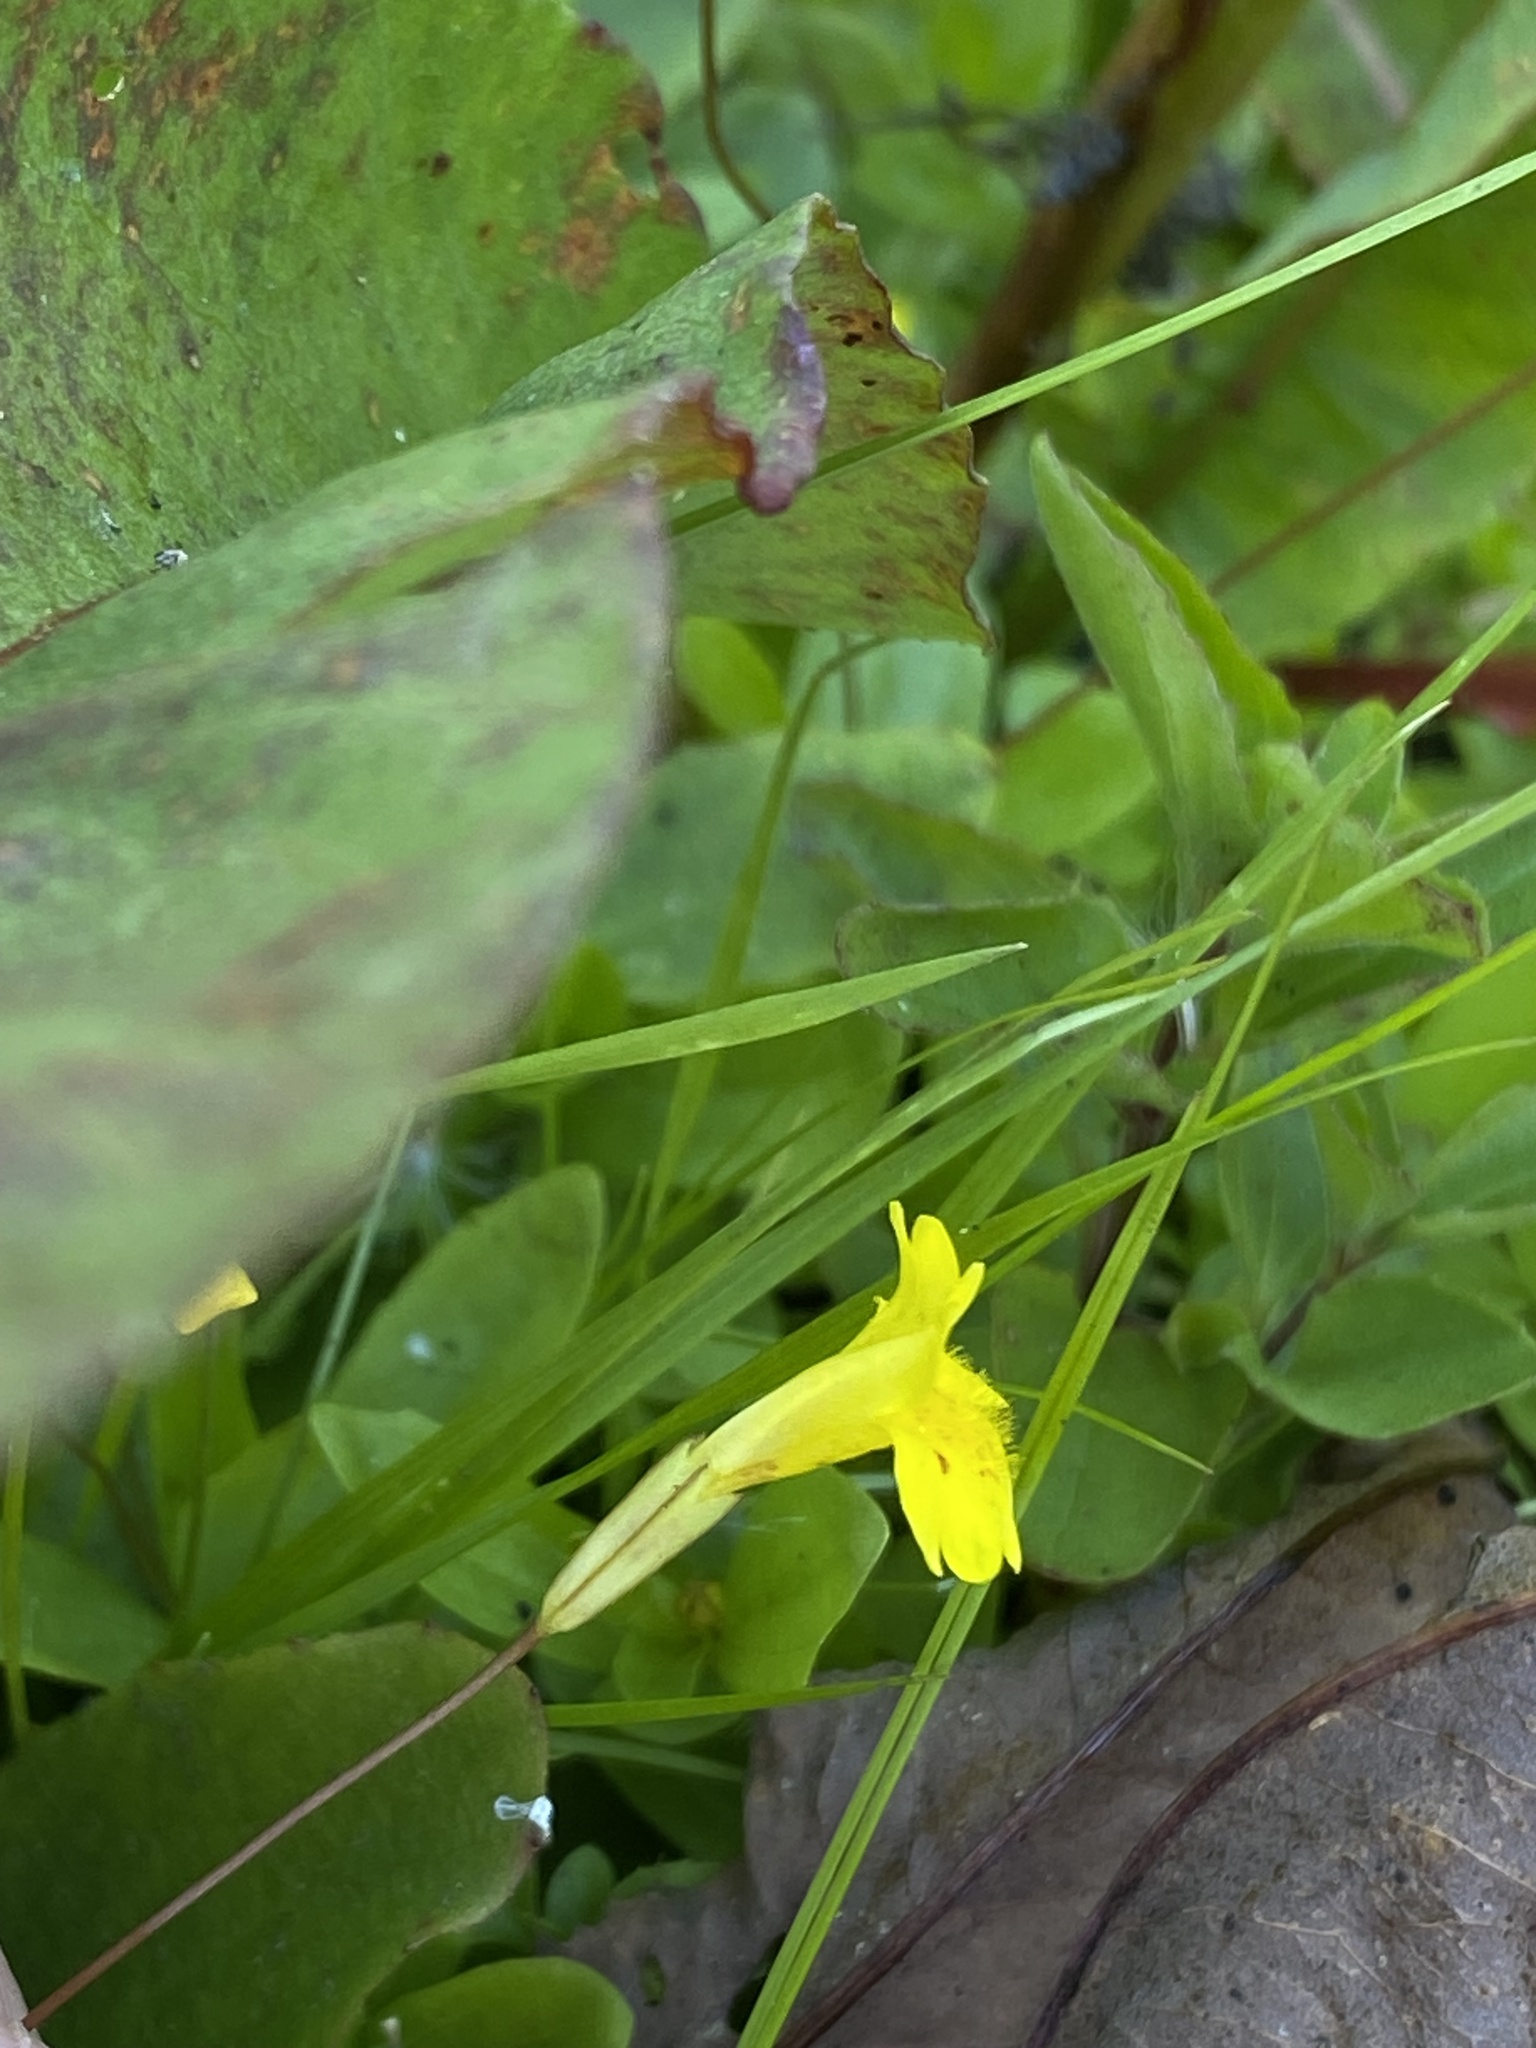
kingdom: Plantae
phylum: Tracheophyta
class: Magnoliopsida
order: Lamiales
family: Phrymaceae
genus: Erythranthe
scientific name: Erythranthe primuloides
